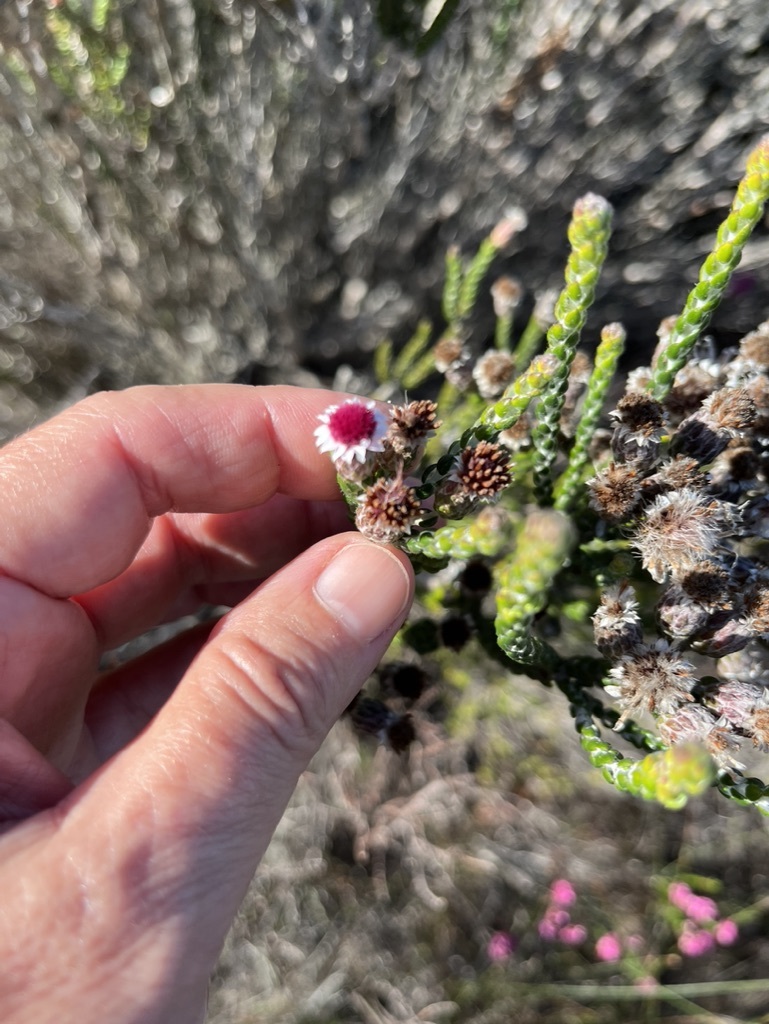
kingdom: Plantae
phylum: Tracheophyta
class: Magnoliopsida
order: Asterales
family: Asteraceae
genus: Lachnospermum
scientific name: Lachnospermum imbricatum
